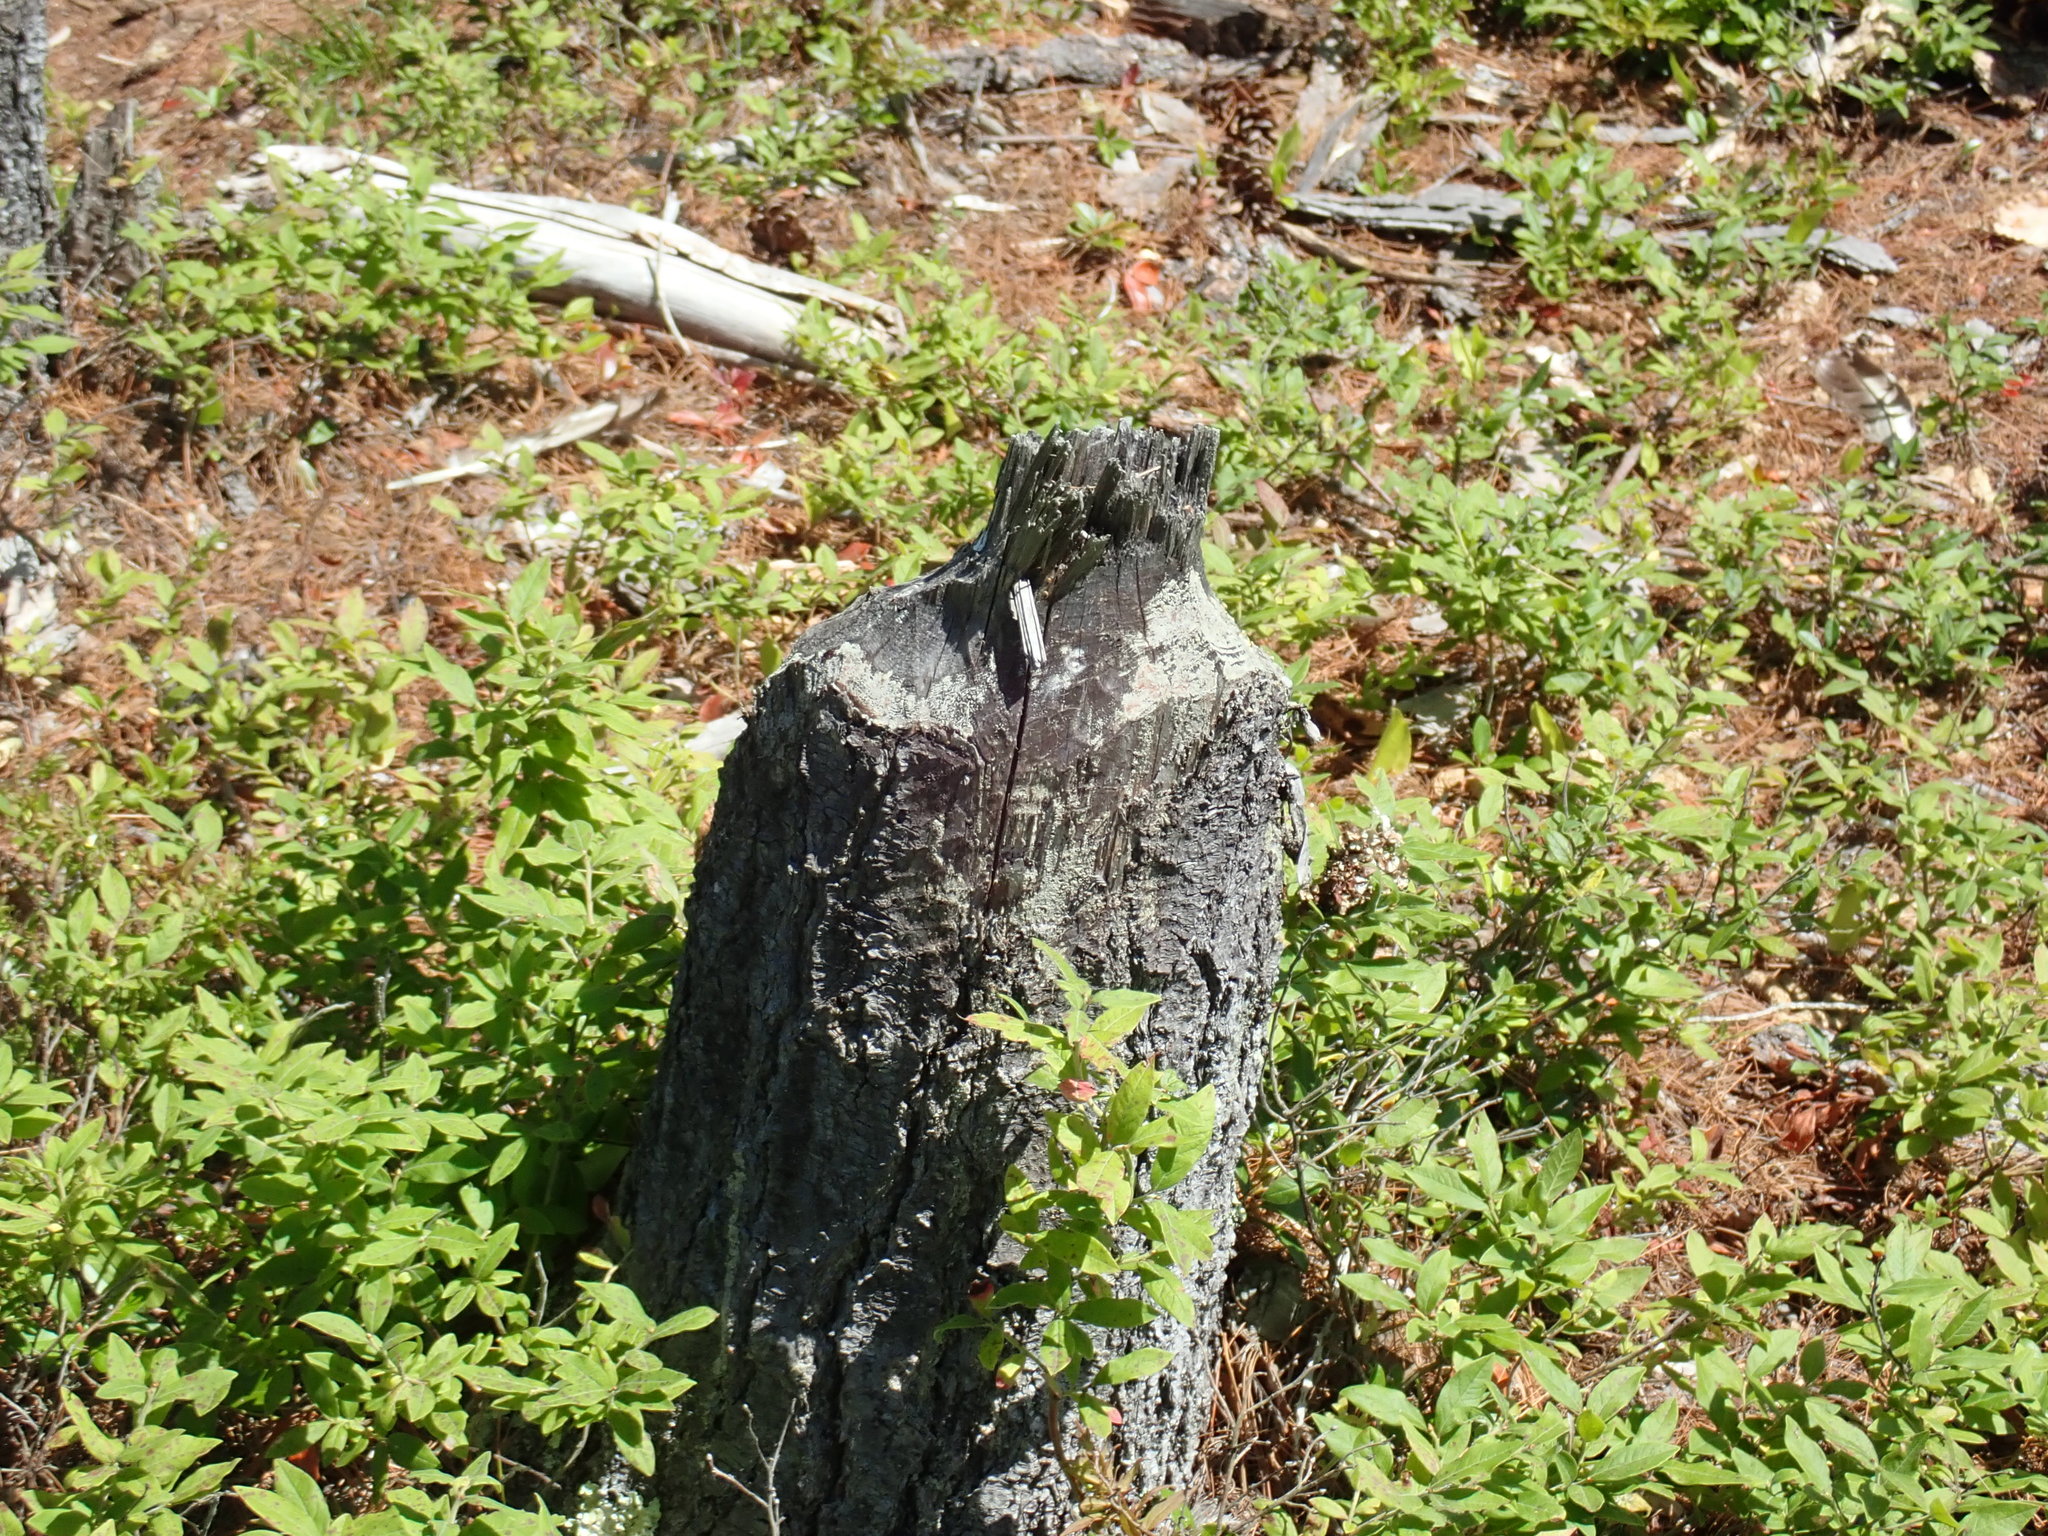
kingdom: Animalia
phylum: Chordata
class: Mammalia
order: Rodentia
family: Castoridae
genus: Castor
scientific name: Castor canadensis
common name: American beaver
